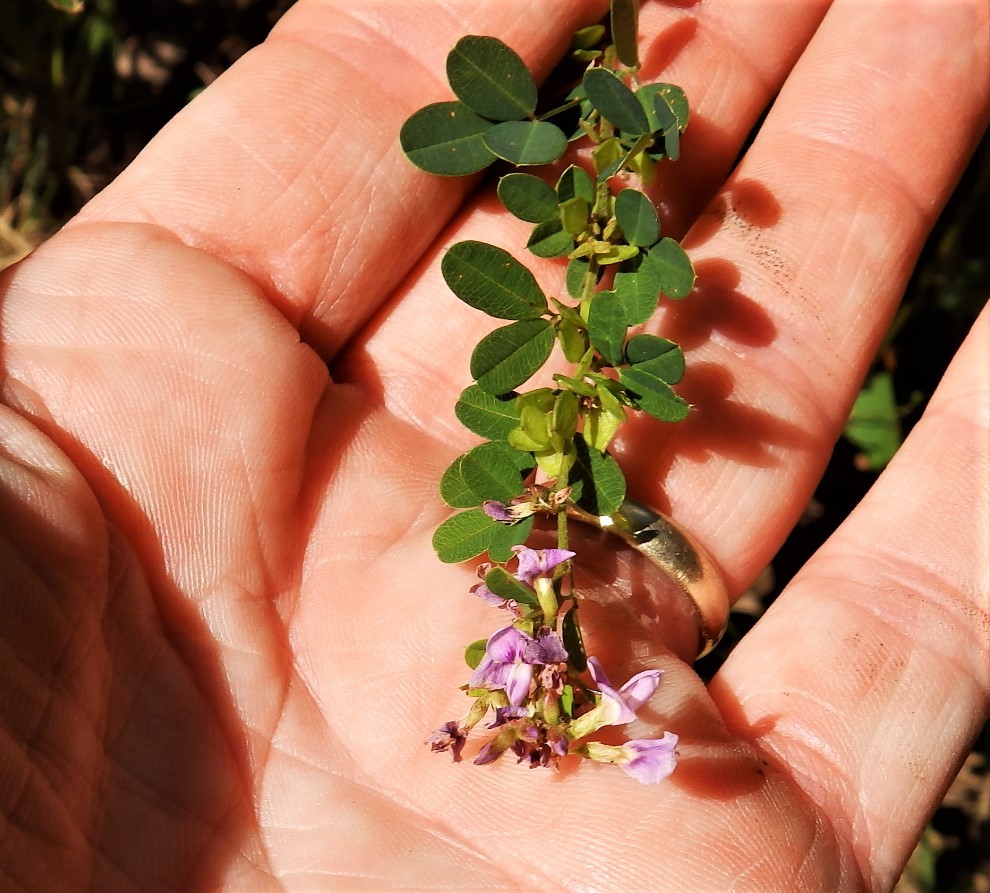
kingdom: Plantae
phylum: Tracheophyta
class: Magnoliopsida
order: Fabales
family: Fabaceae
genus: Lespedeza
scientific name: Lespedeza violacea
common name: Wand bush-clover
